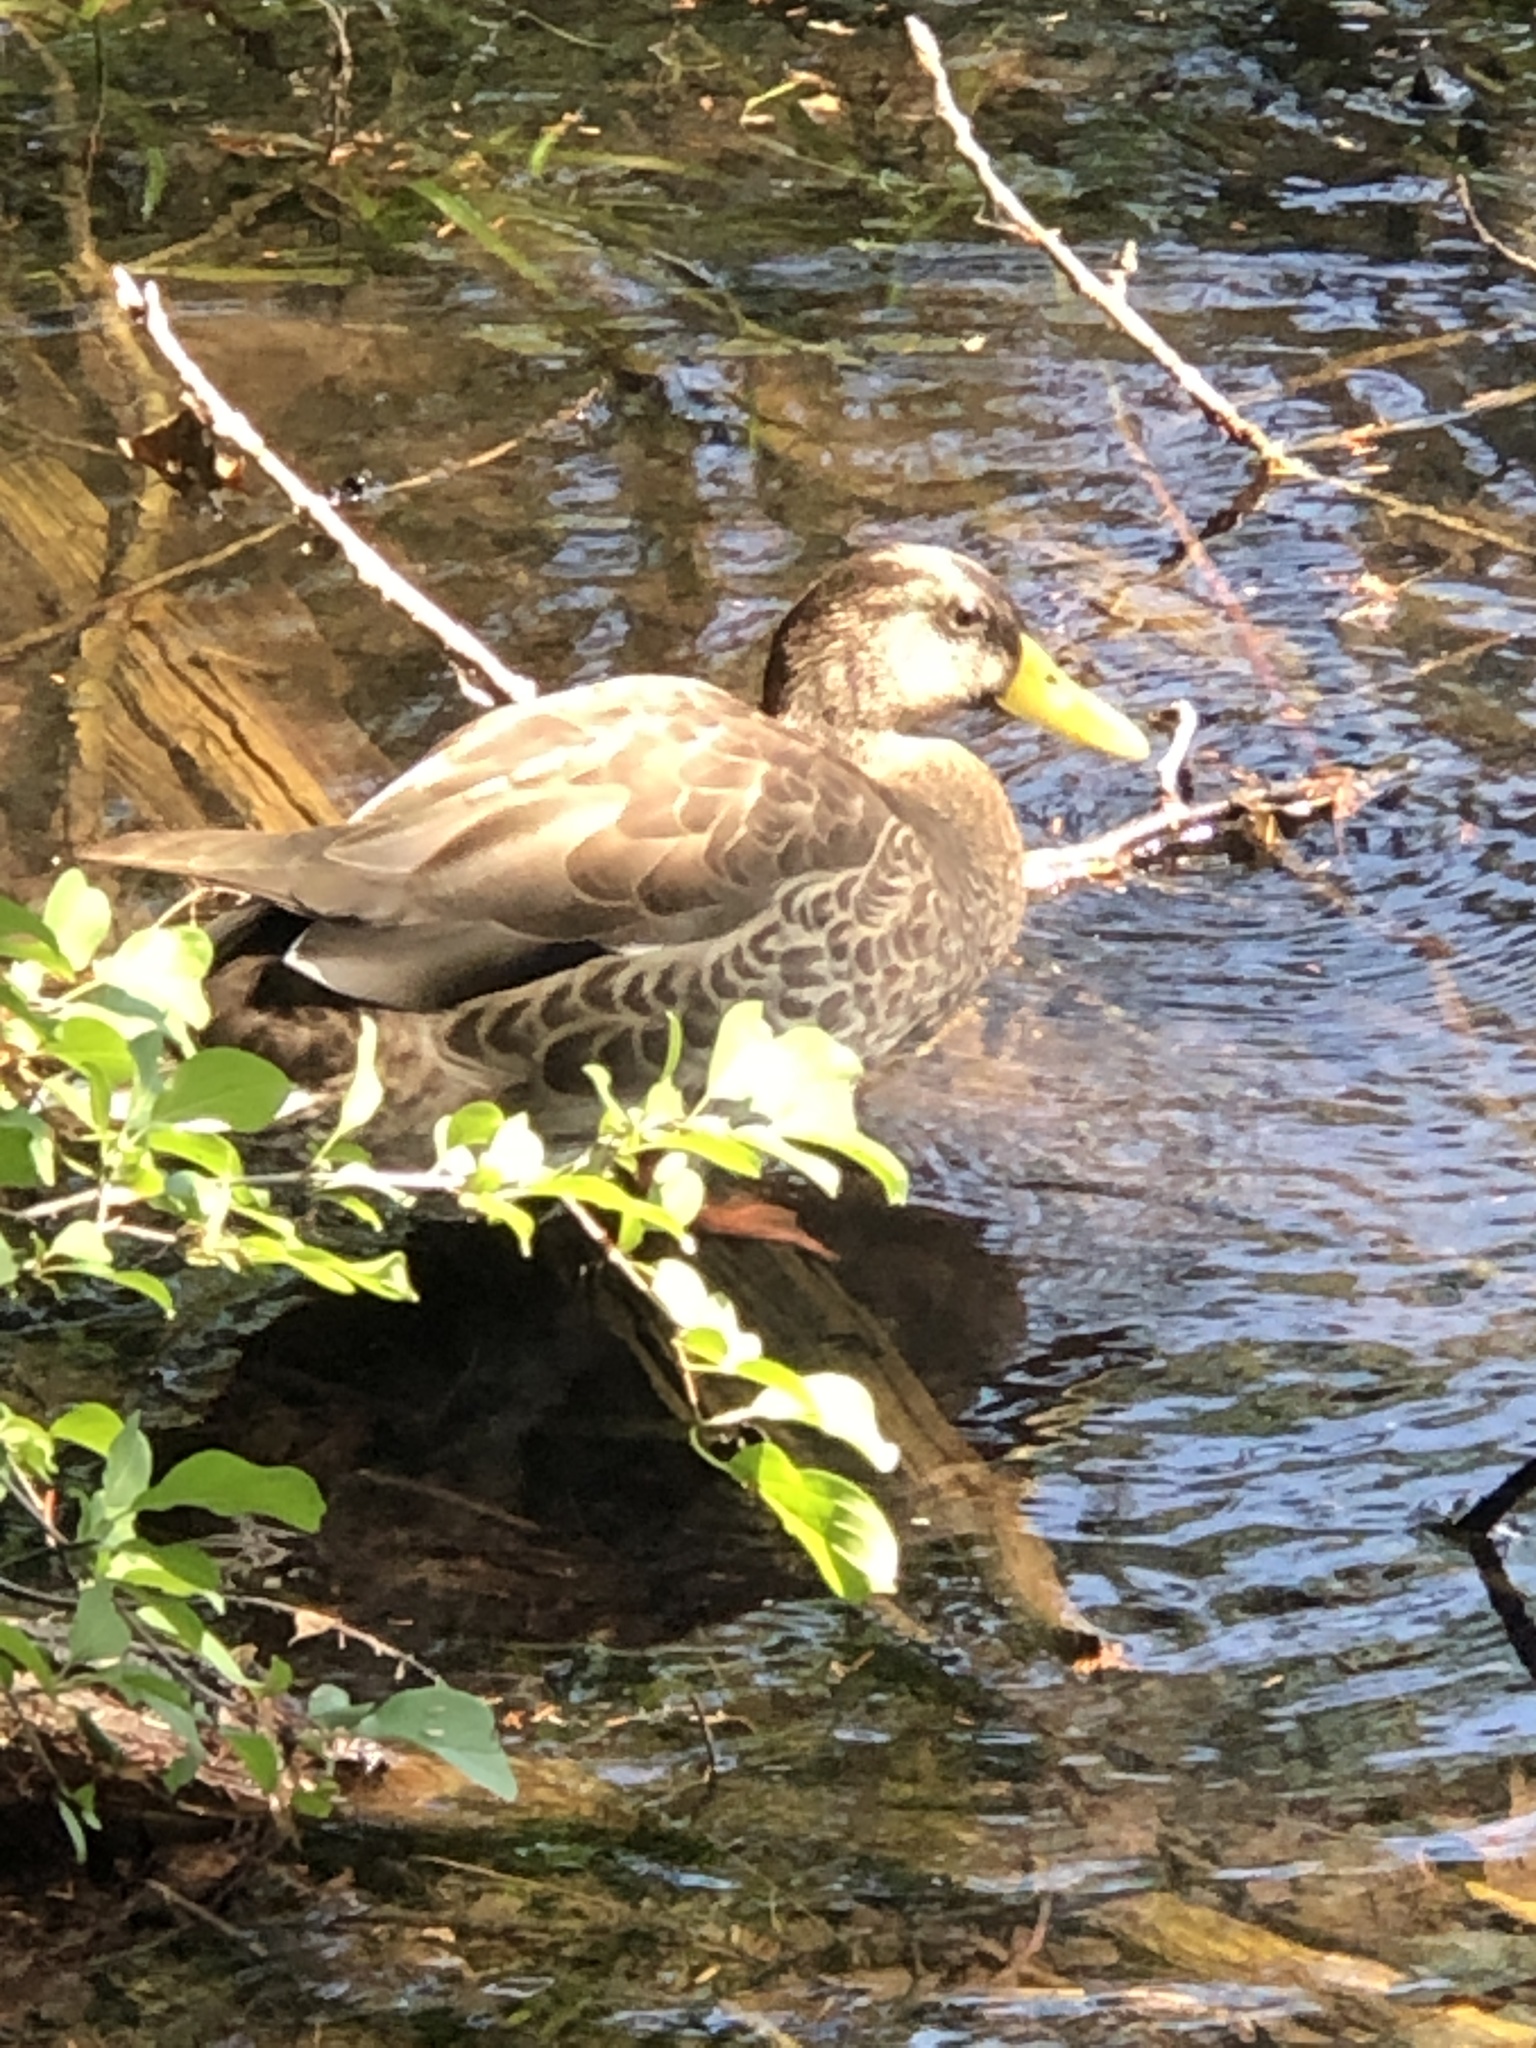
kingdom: Animalia
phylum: Chordata
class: Aves
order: Anseriformes
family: Anatidae
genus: Anas
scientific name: Anas platyrhynchos
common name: Mallard
